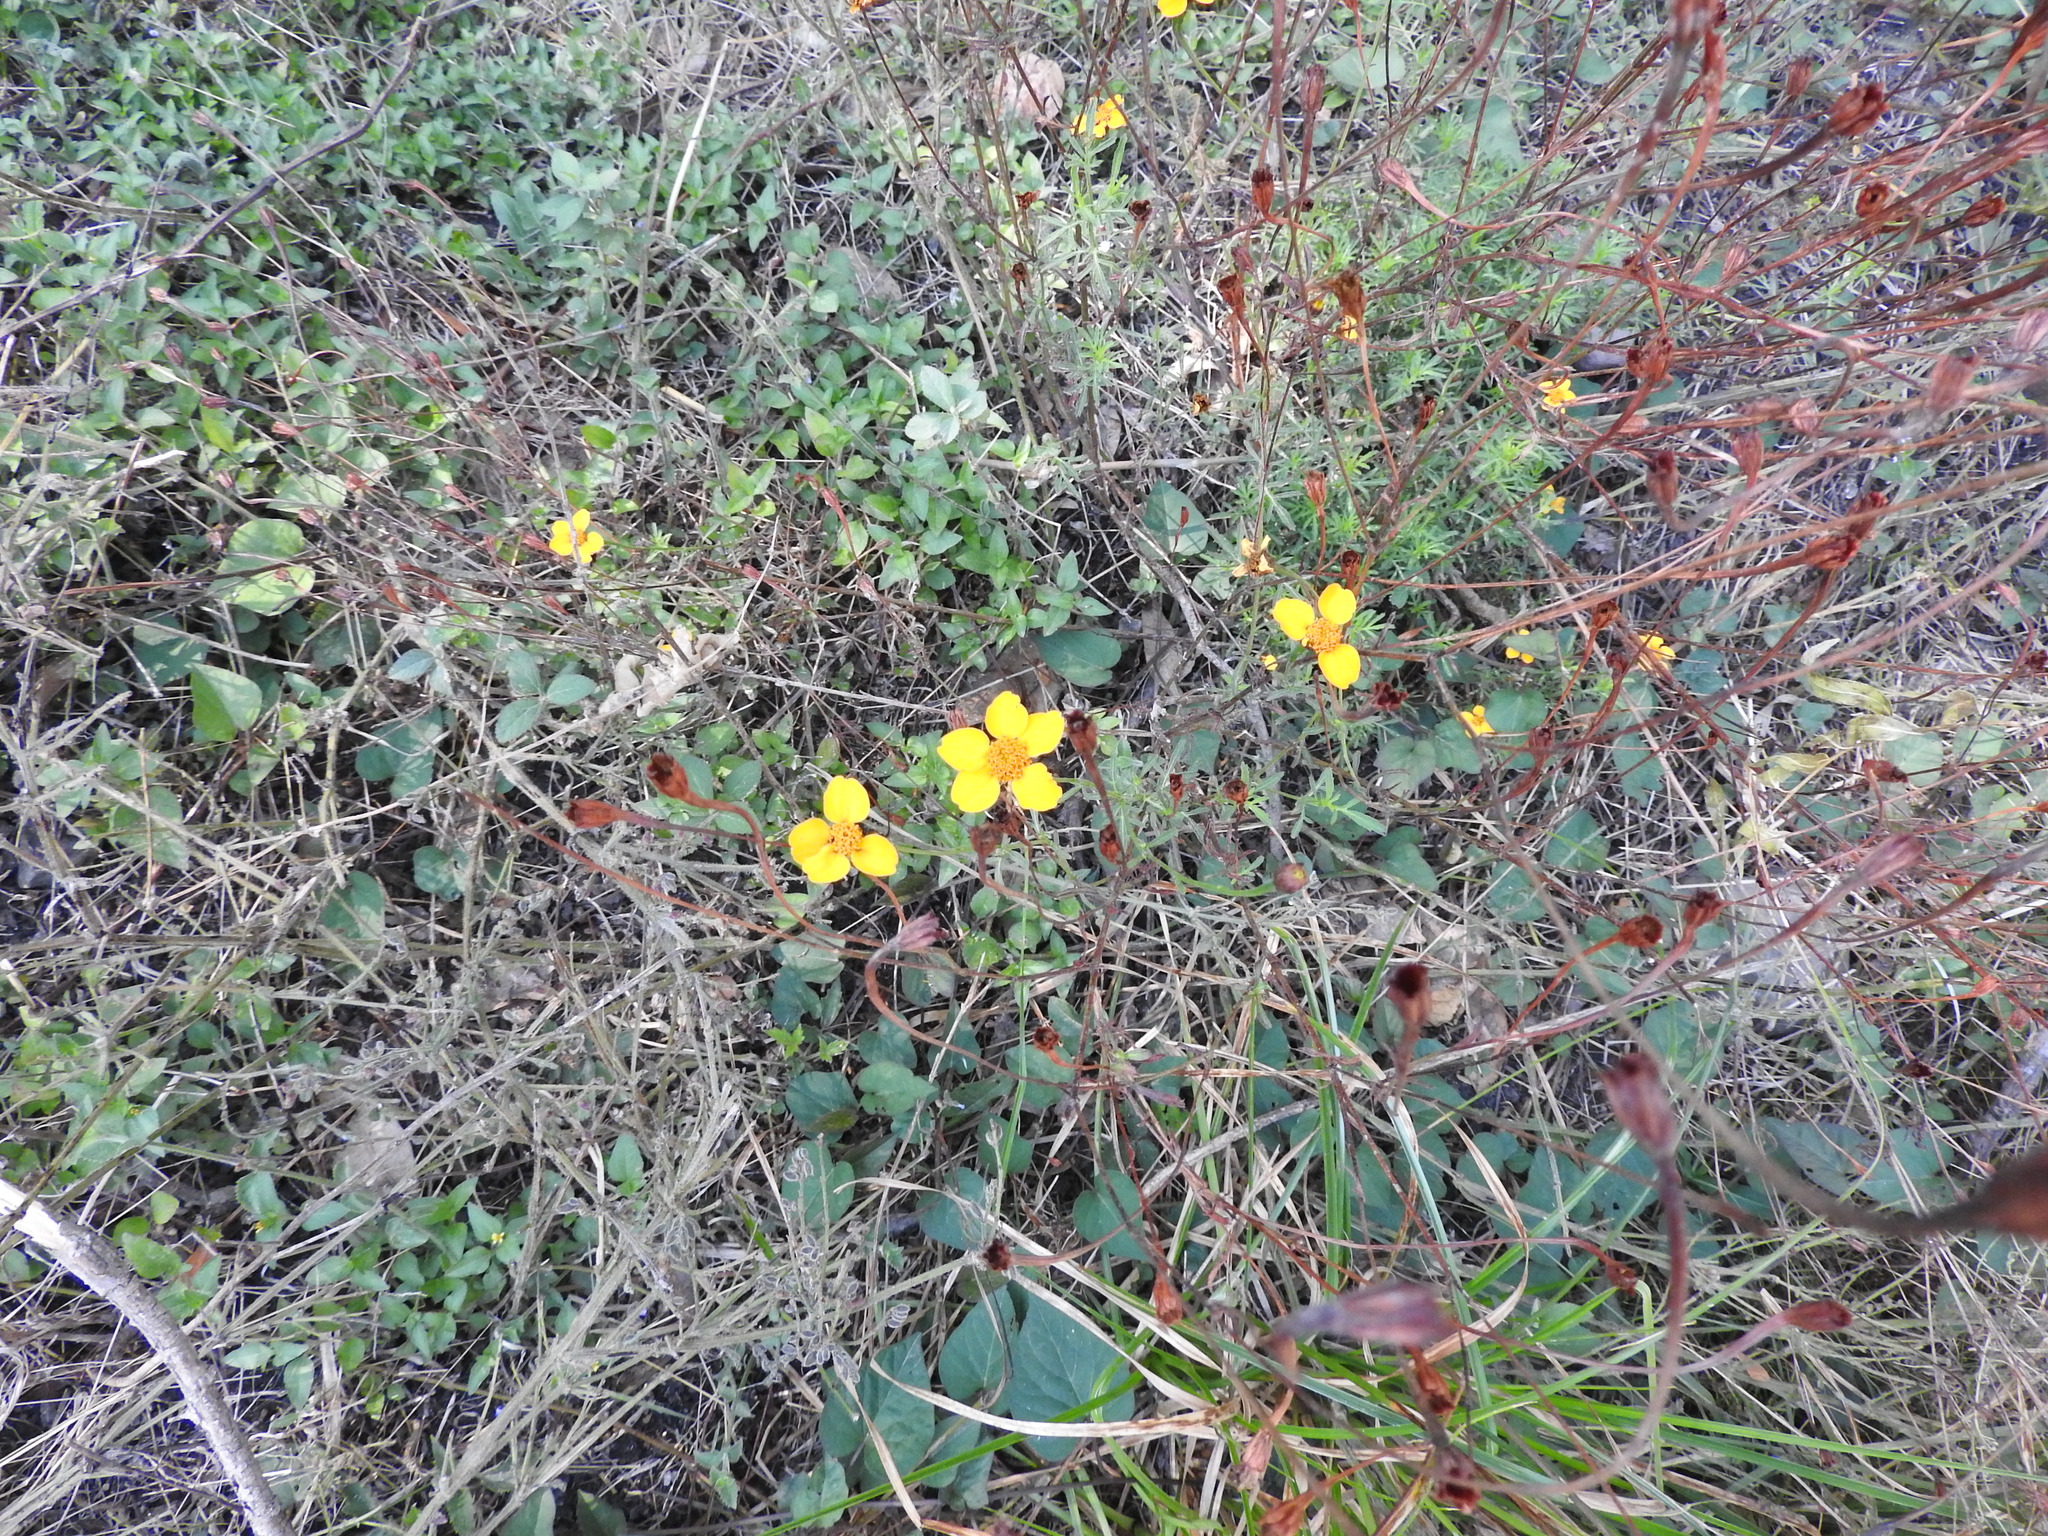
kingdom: Plantae
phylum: Tracheophyta
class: Magnoliopsida
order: Asterales
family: Asteraceae
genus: Dyssodia
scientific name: Dyssodia tagetiflora
